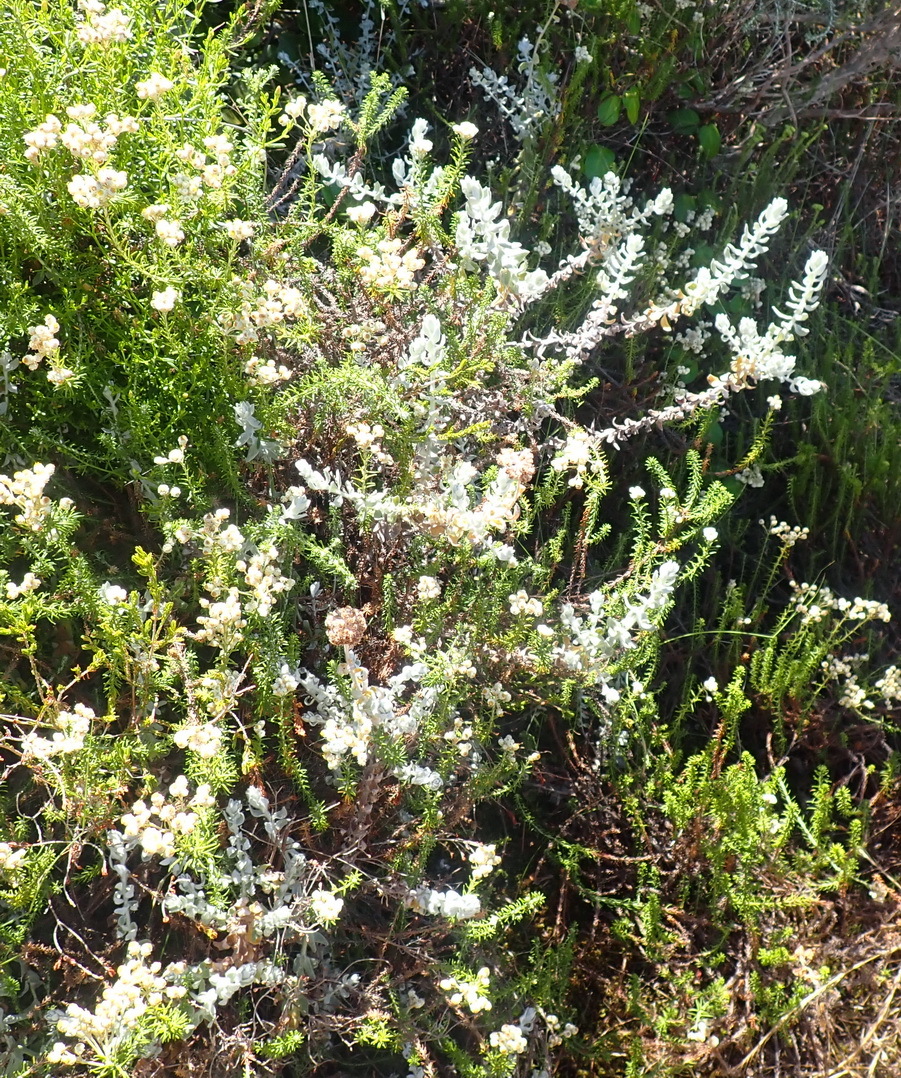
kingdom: Plantae
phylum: Tracheophyta
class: Magnoliopsida
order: Asterales
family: Asteraceae
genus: Helichrysum
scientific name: Helichrysum dasyanthum
